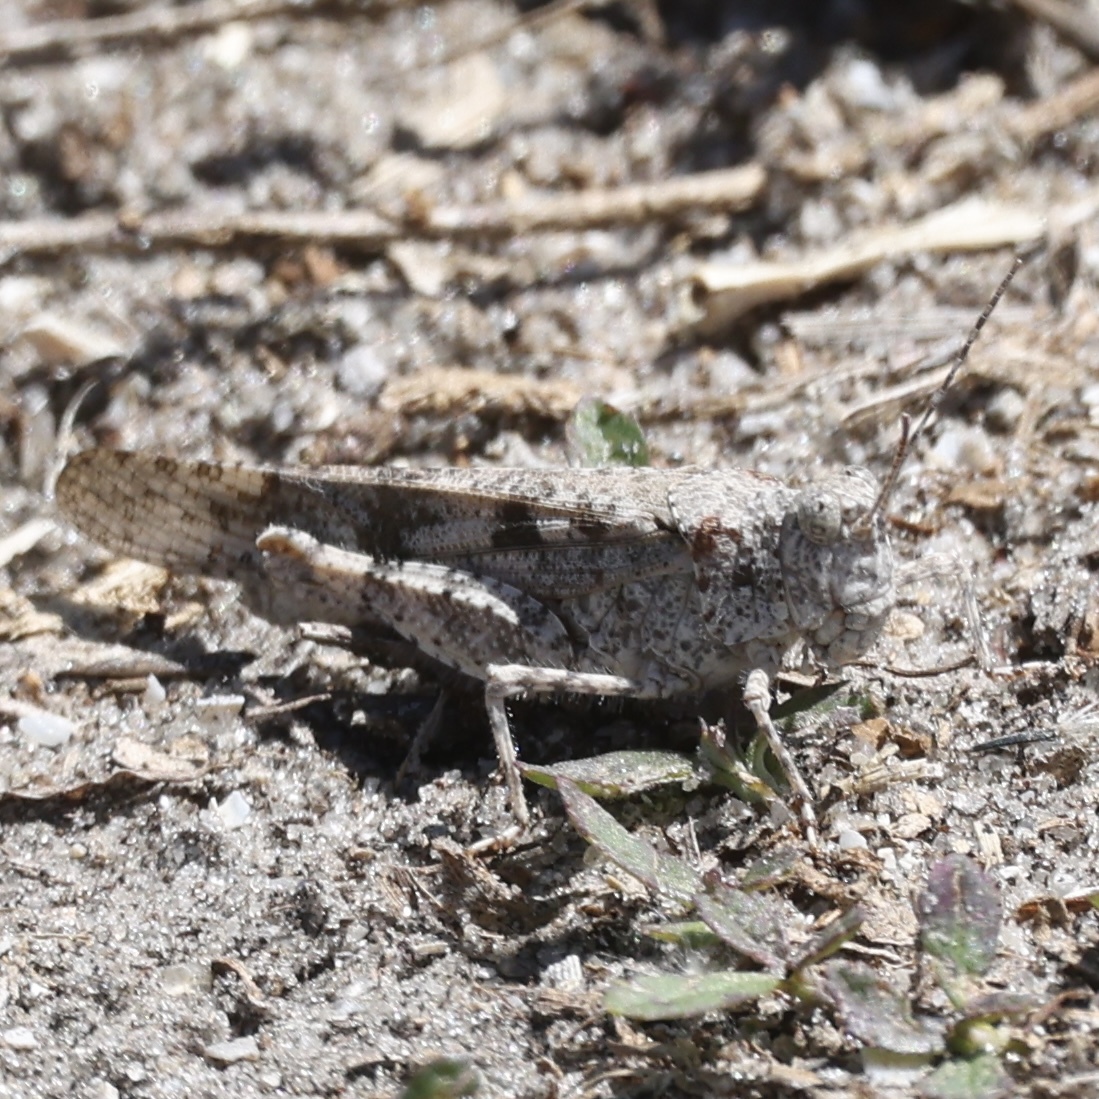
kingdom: Animalia
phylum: Arthropoda
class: Insecta
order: Orthoptera
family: Acrididae
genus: Trimerotropis
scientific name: Trimerotropis maritima
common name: Seaside locust
